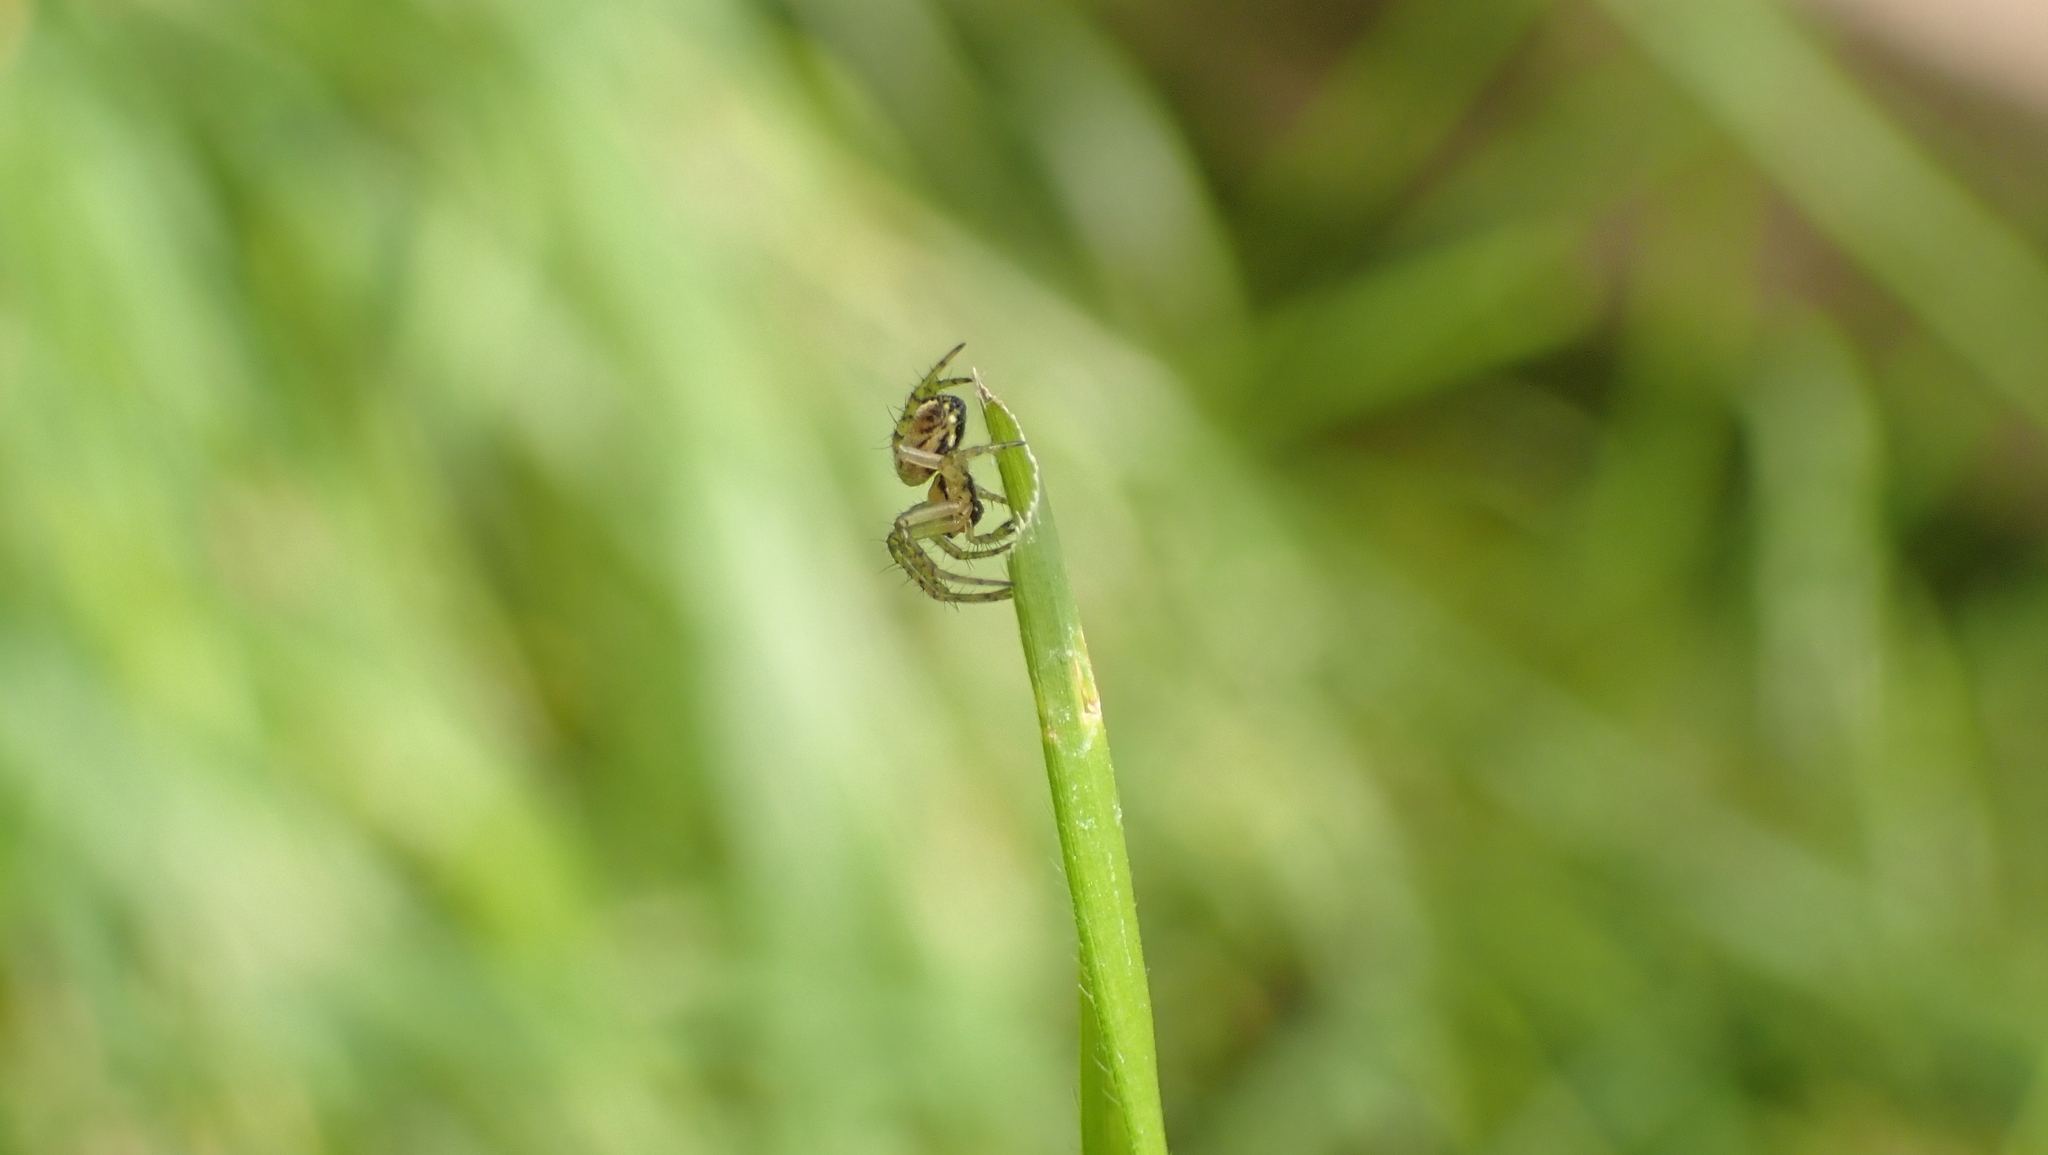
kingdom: Animalia
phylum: Arthropoda
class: Arachnida
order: Araneae
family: Araneidae
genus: Mangora
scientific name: Mangora acalypha
